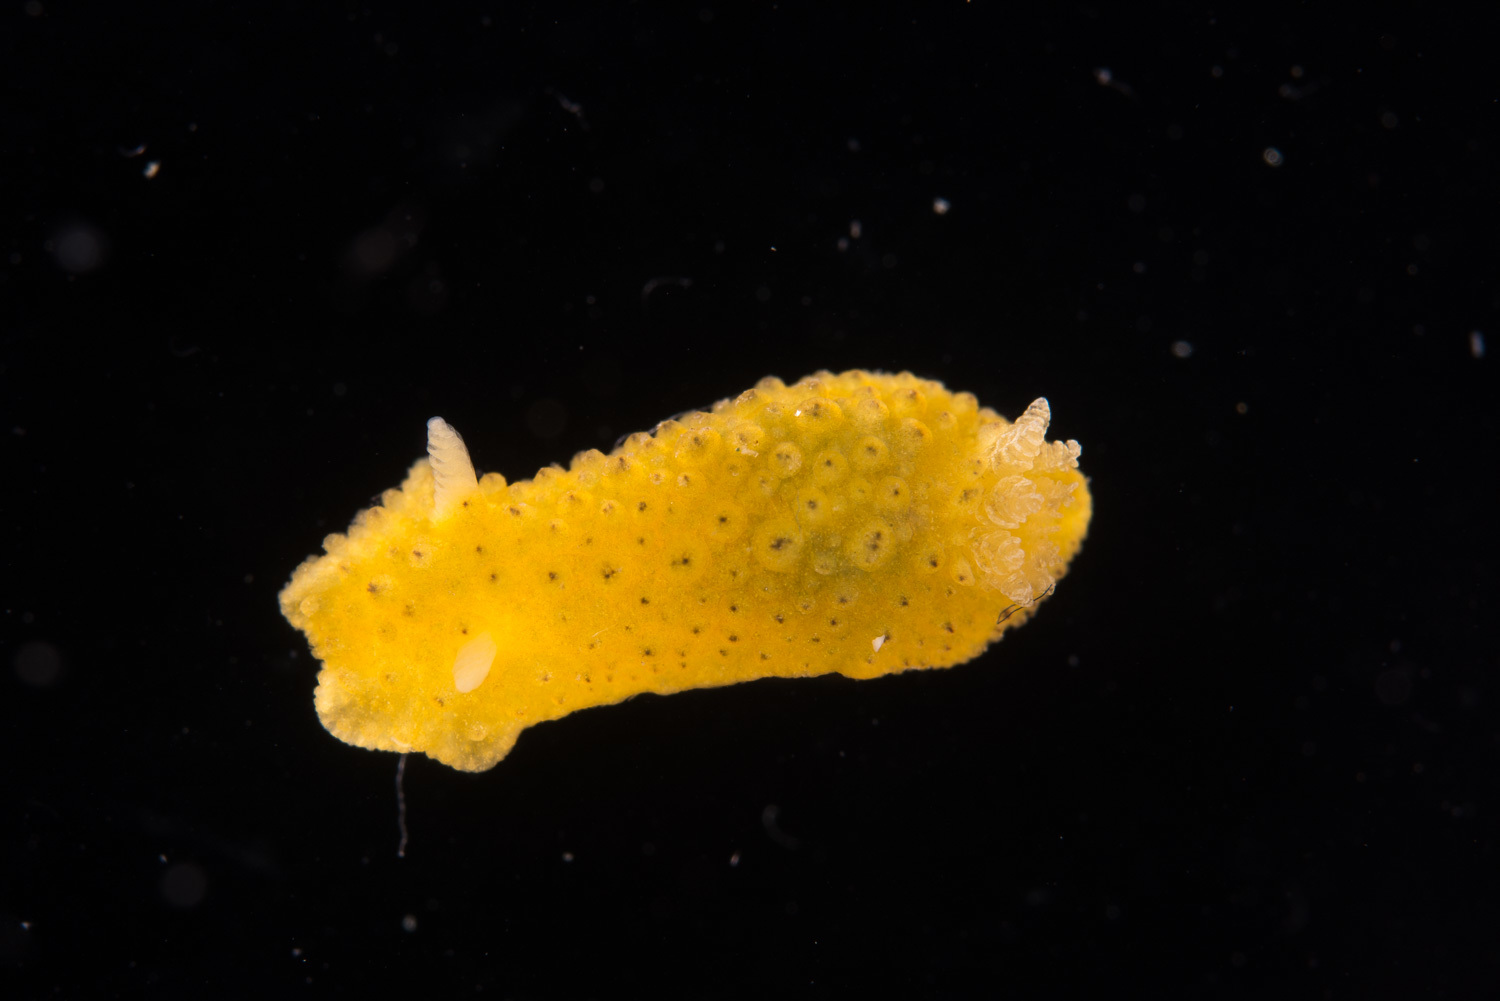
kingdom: Animalia
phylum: Mollusca
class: Gastropoda
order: Nudibranchia
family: Dorididae
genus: Doris
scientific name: Doris ocelligera
